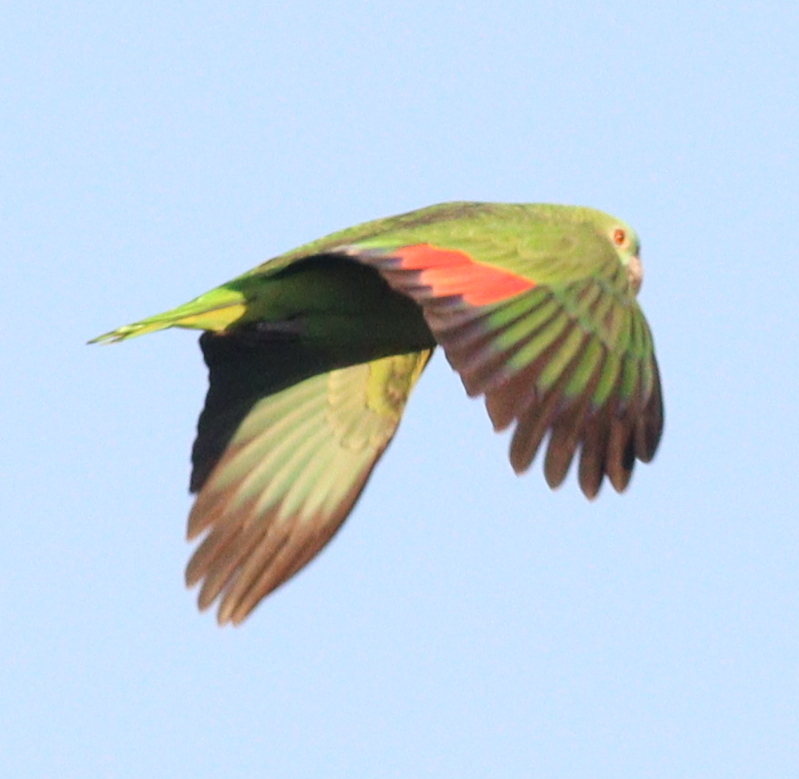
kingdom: Animalia
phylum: Chordata
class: Aves
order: Psittaciformes
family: Psittacidae
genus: Amazona
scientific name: Amazona aestiva
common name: Turquoise-fronted amazon
